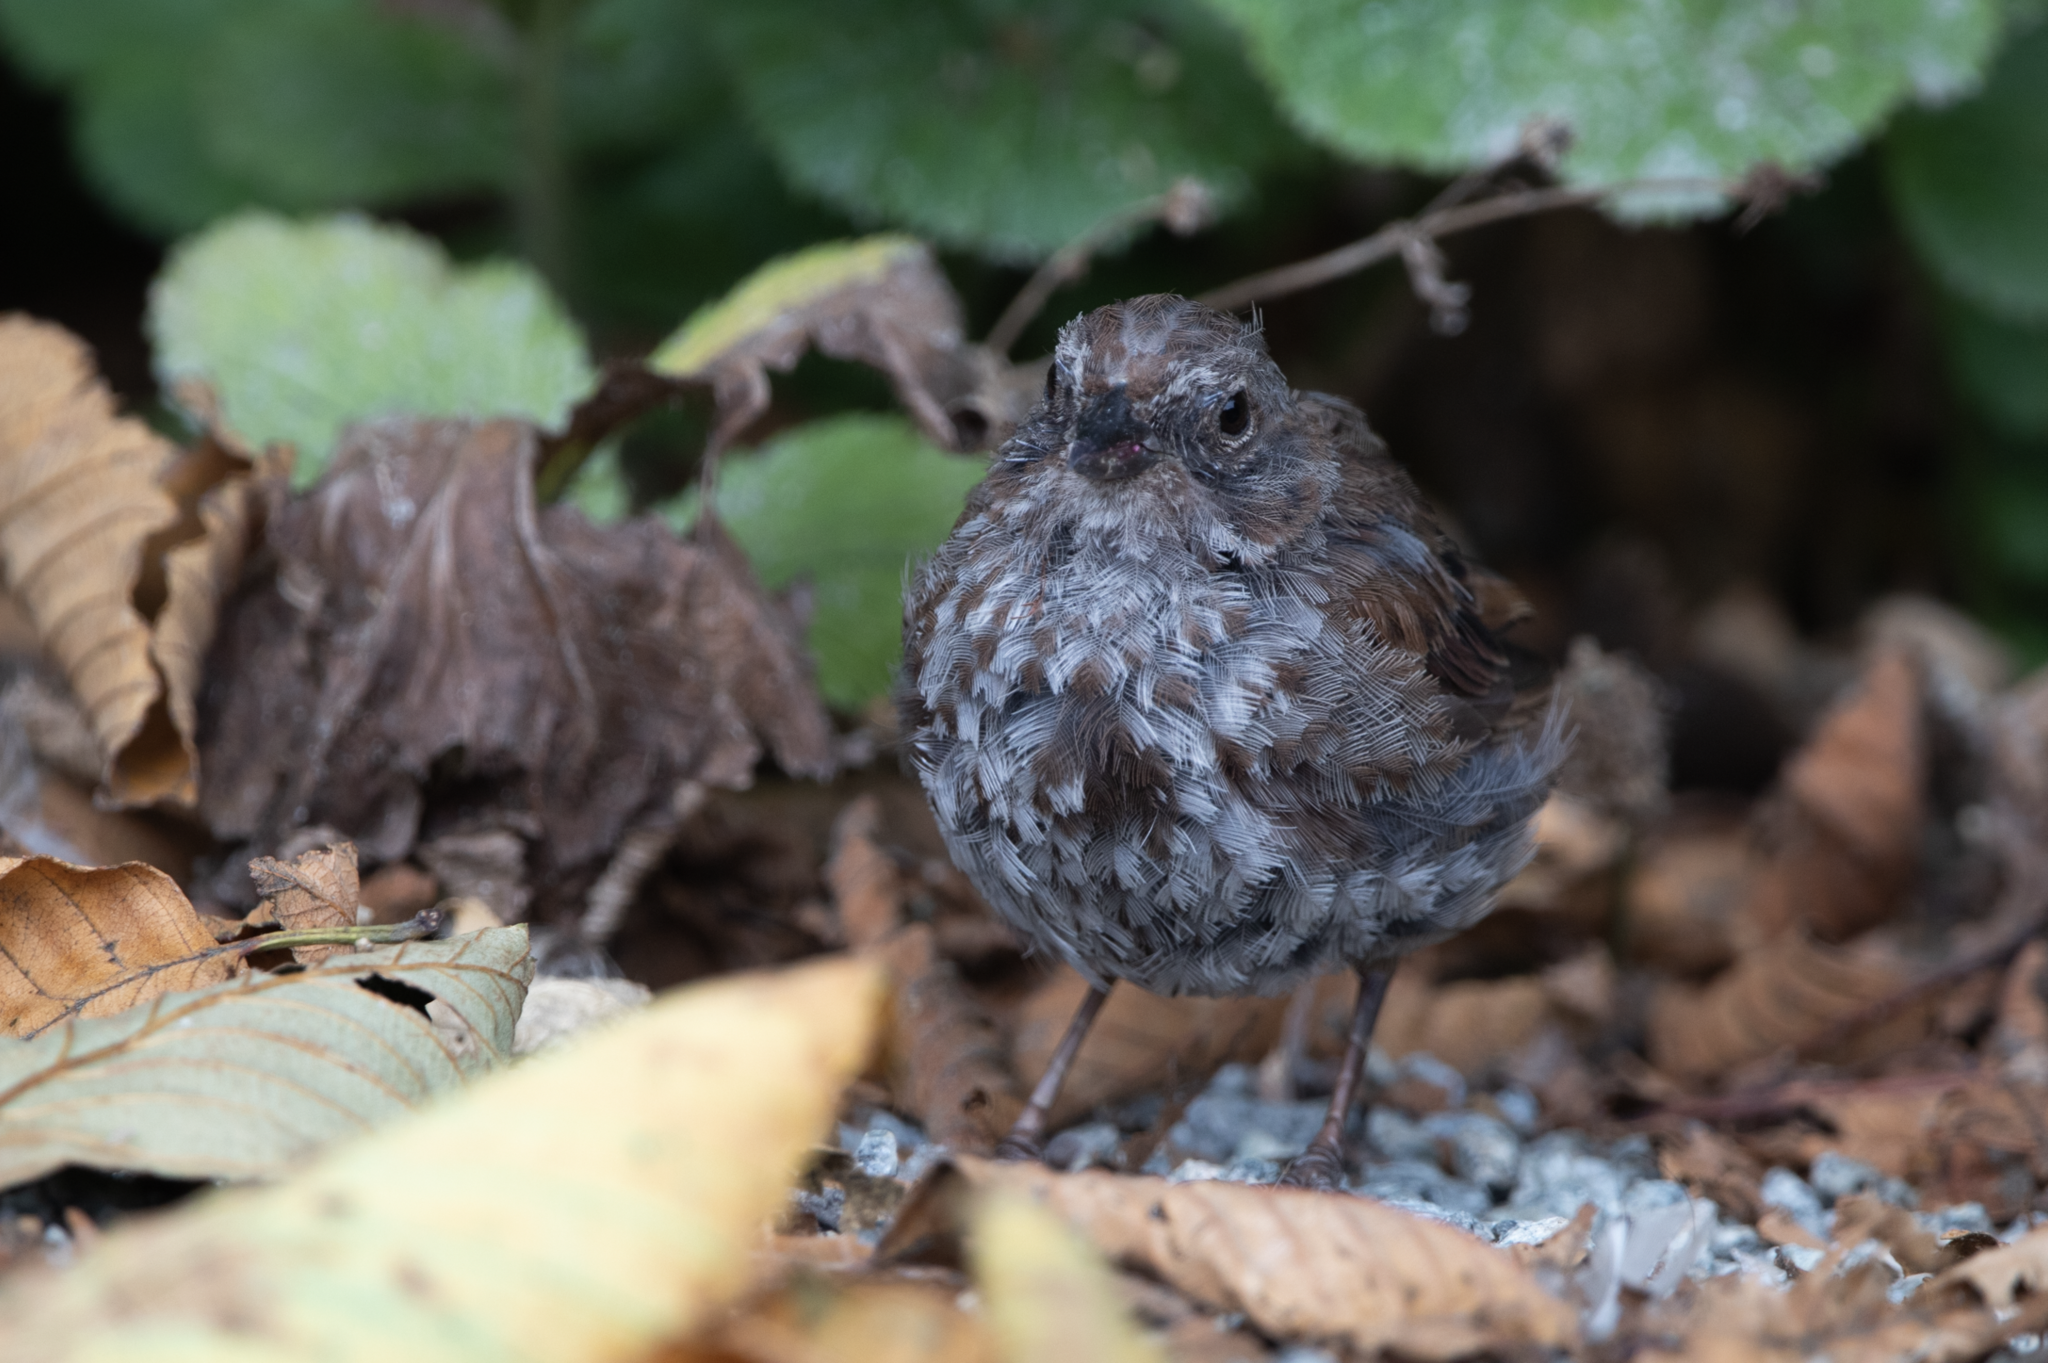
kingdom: Animalia
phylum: Chordata
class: Aves
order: Passeriformes
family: Passerellidae
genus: Melospiza
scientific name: Melospiza melodia
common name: Song sparrow
